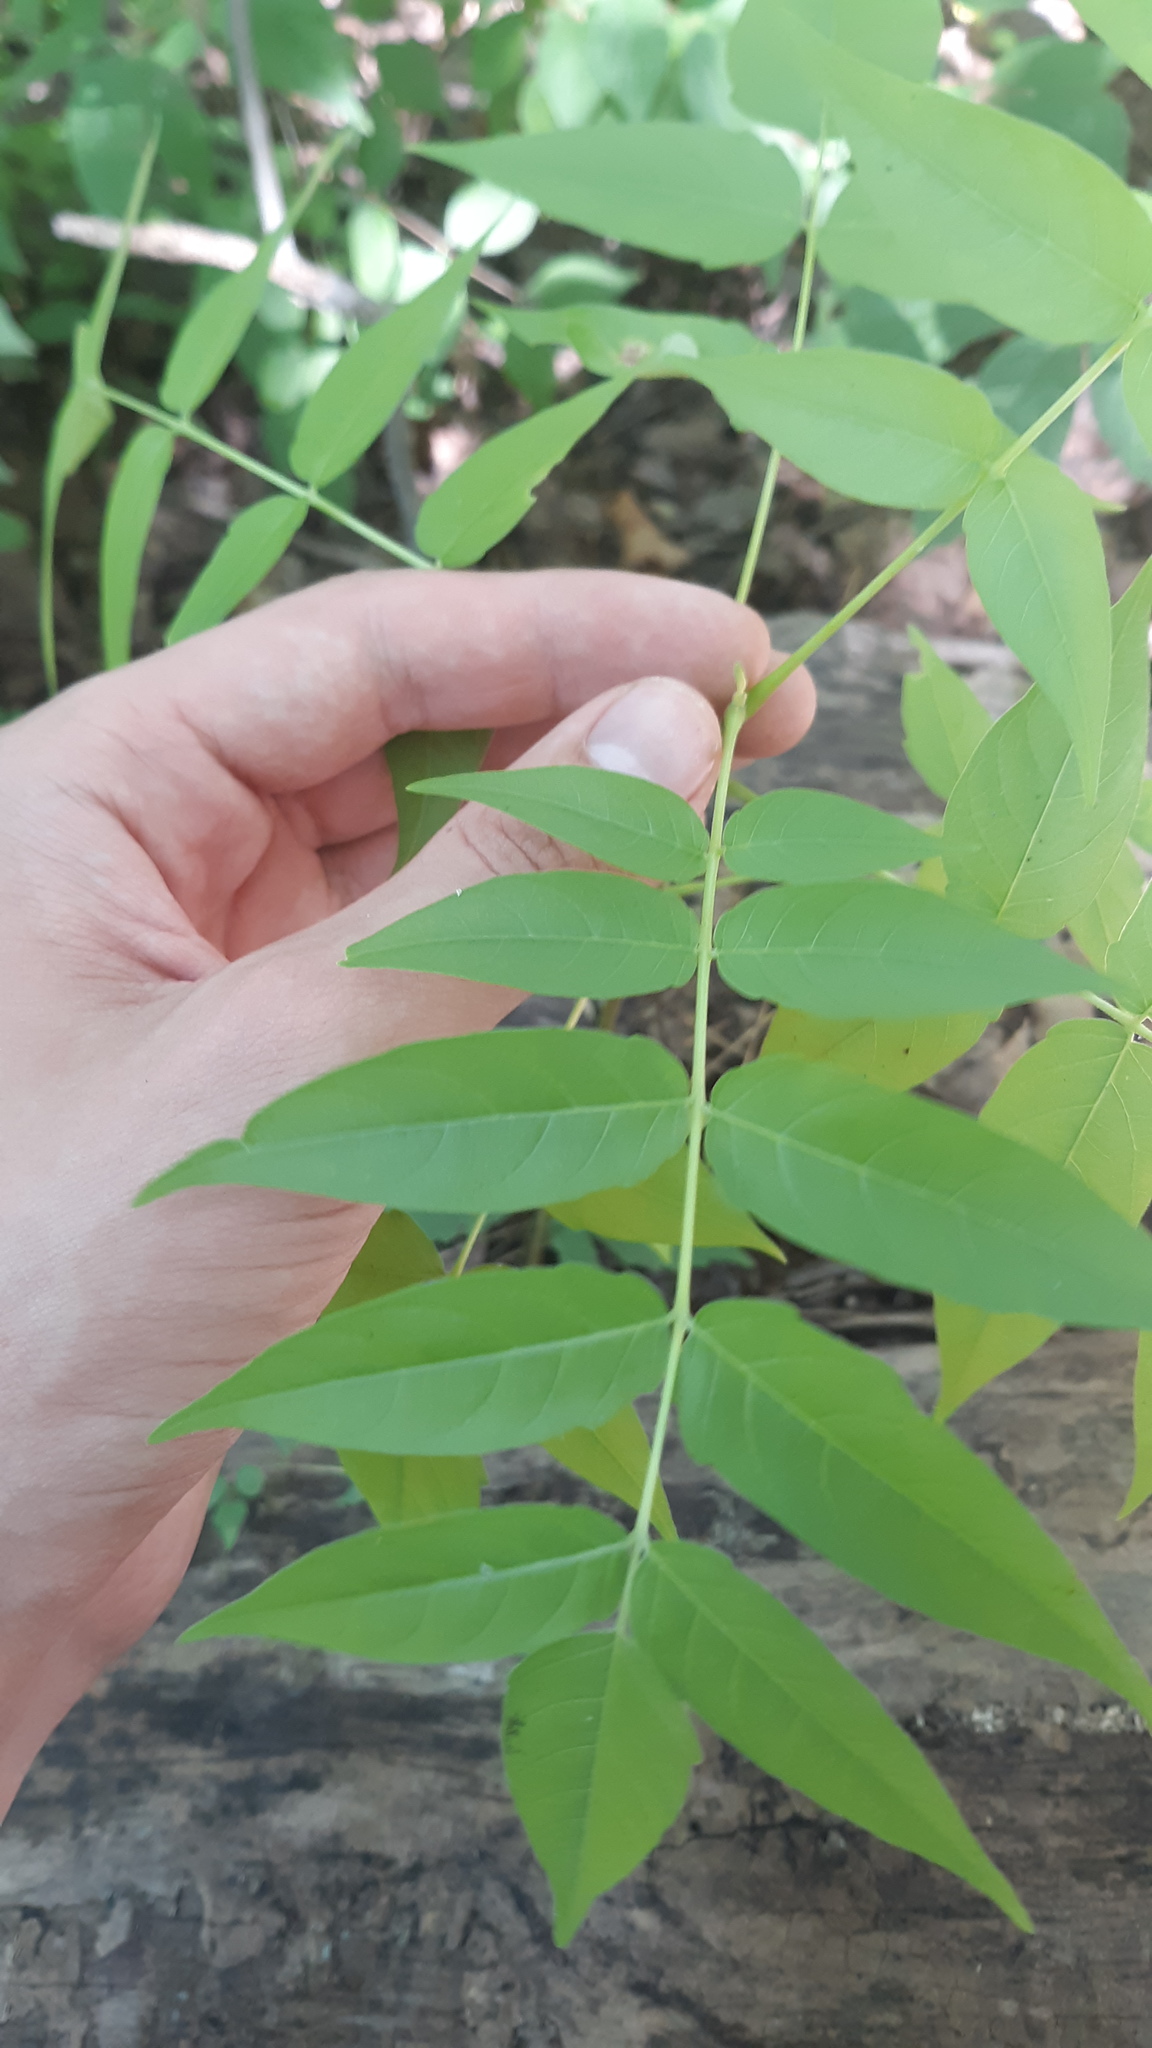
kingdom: Plantae
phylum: Tracheophyta
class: Magnoliopsida
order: Sapindales
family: Simaroubaceae
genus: Ailanthus
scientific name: Ailanthus altissima
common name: Tree-of-heaven
